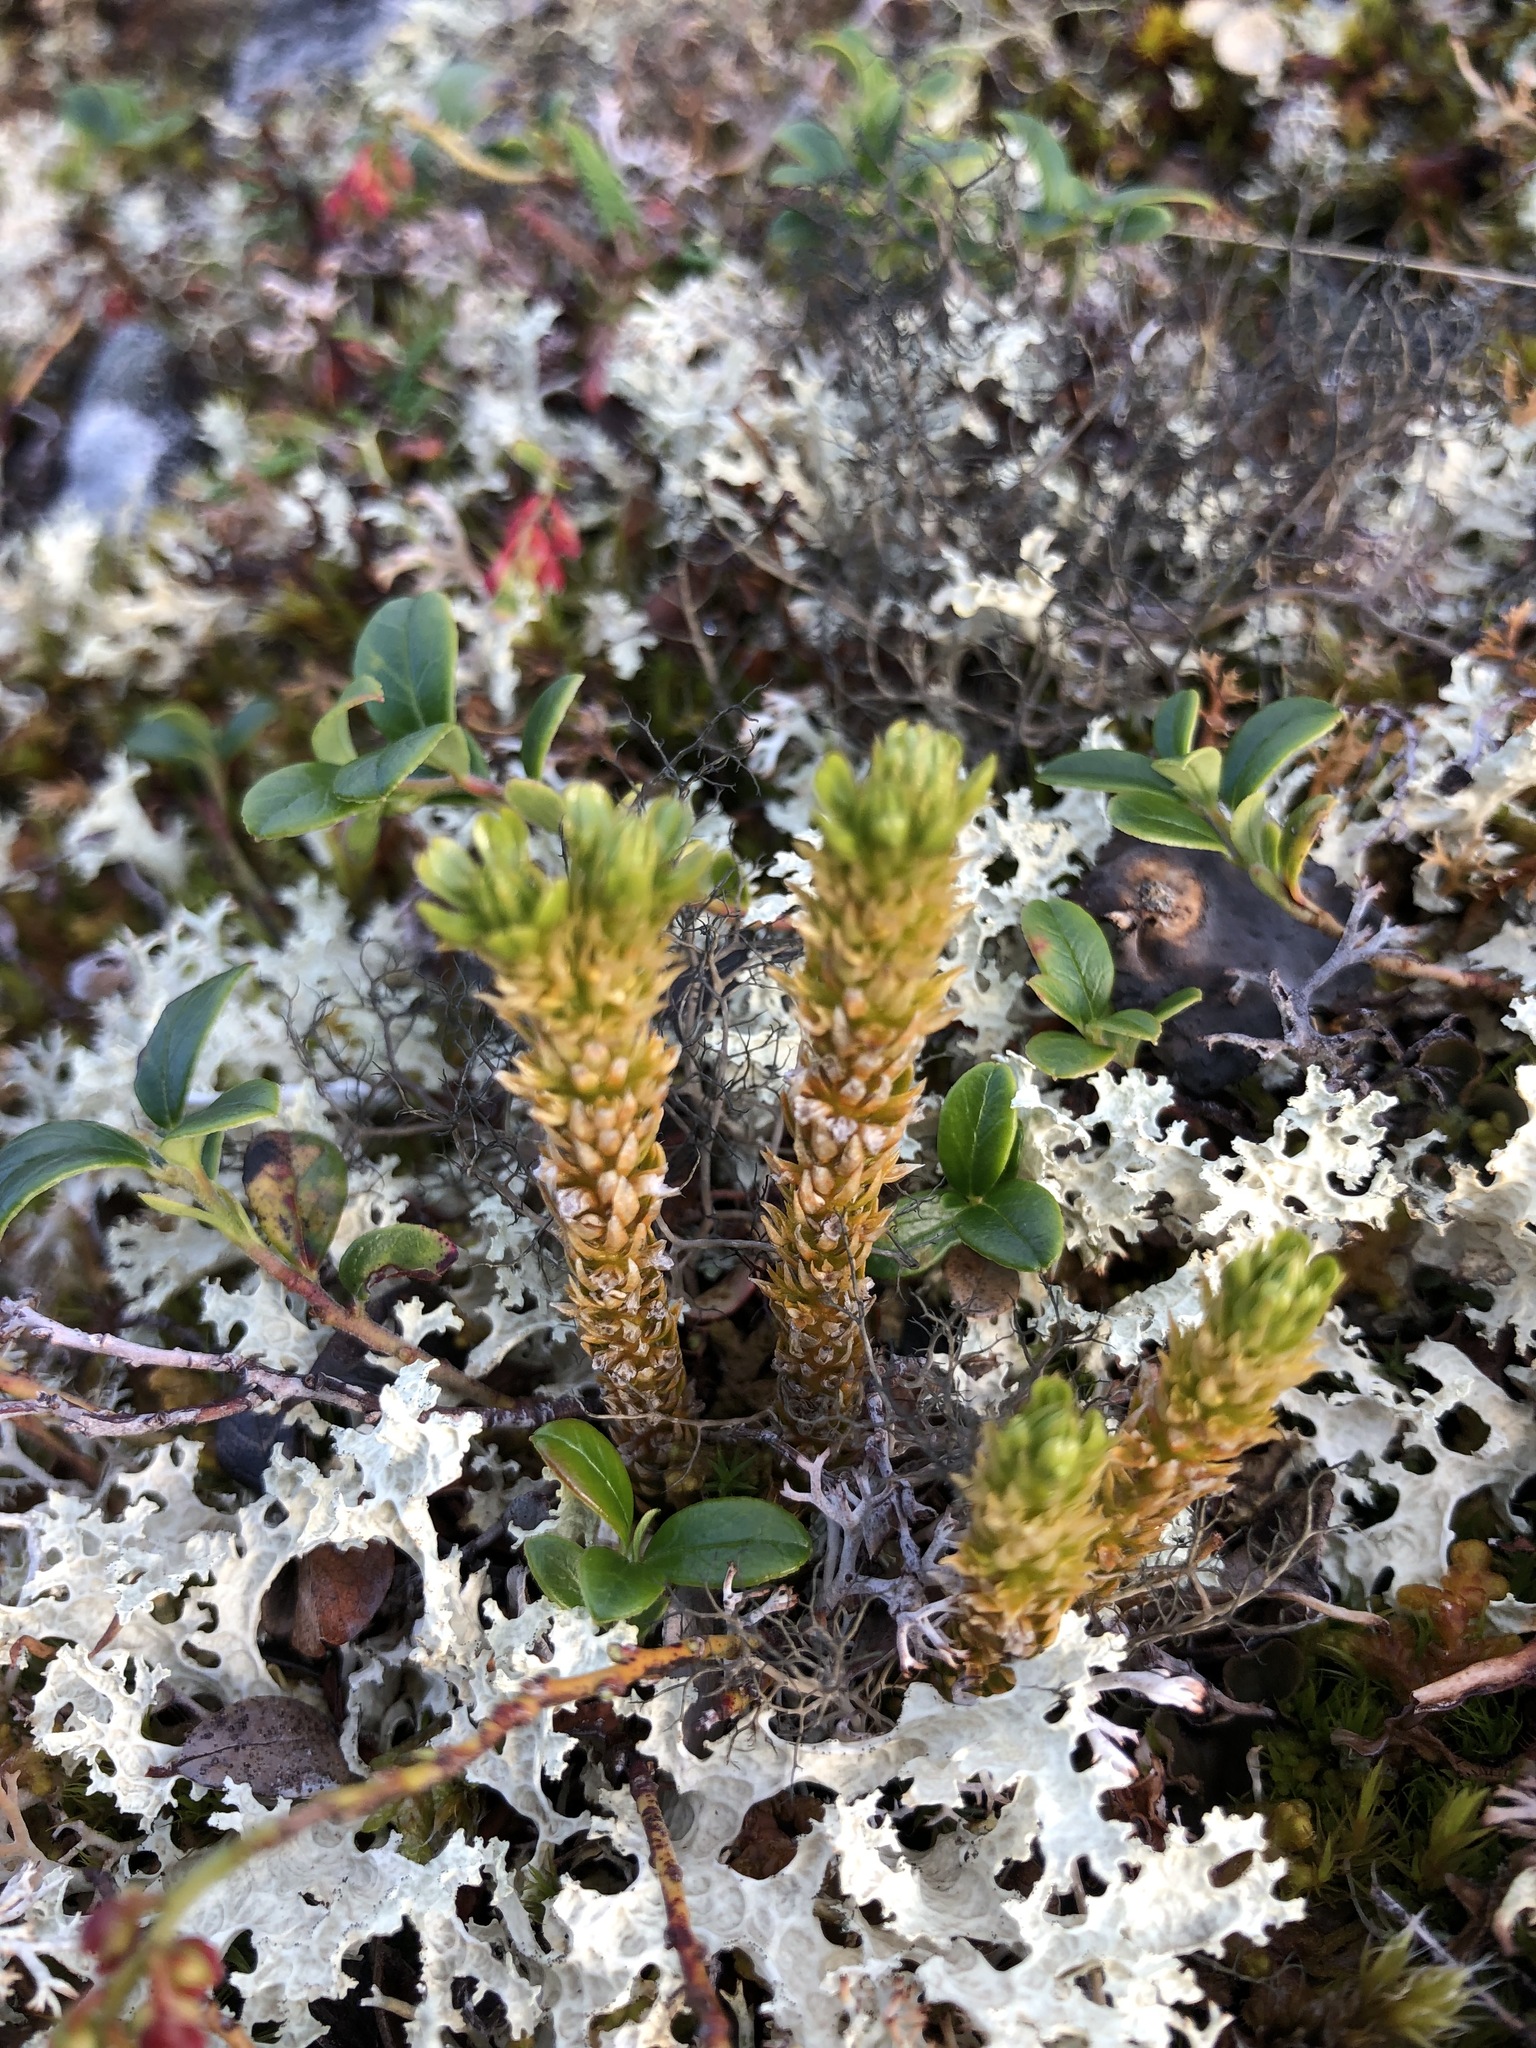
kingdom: Plantae
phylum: Tracheophyta
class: Lycopodiopsida
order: Lycopodiales
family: Lycopodiaceae
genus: Huperzia
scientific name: Huperzia selago
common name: Northern firmoss
